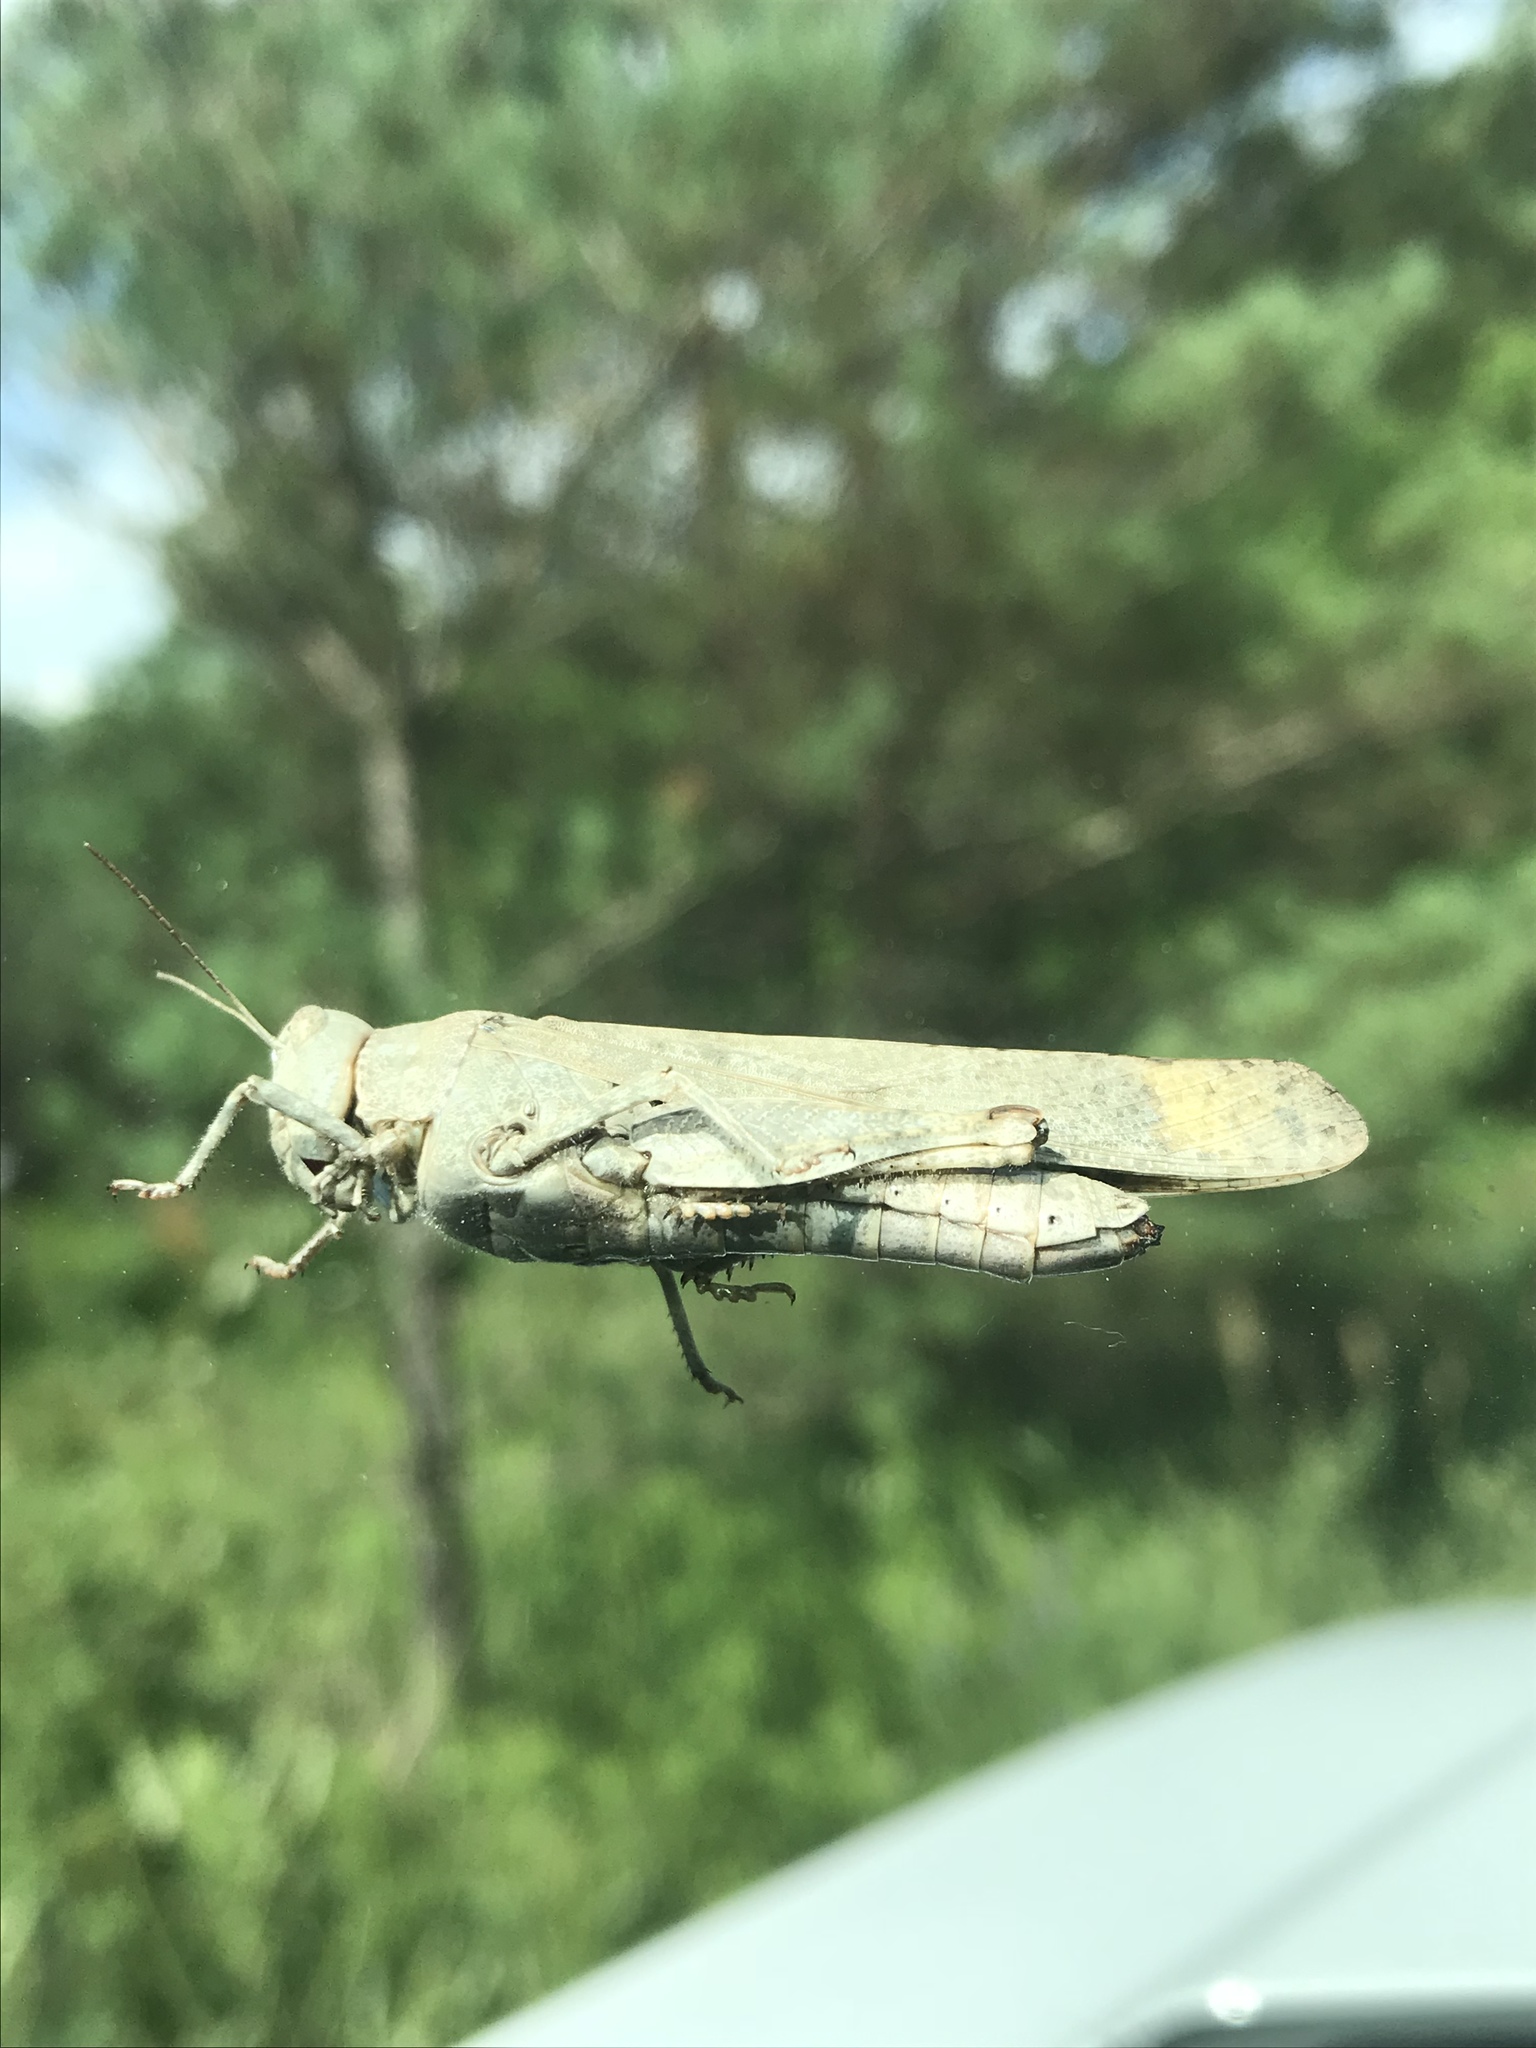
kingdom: Animalia
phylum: Arthropoda
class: Insecta
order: Orthoptera
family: Acrididae
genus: Dissosteira
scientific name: Dissosteira carolina
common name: Carolina grasshopper
